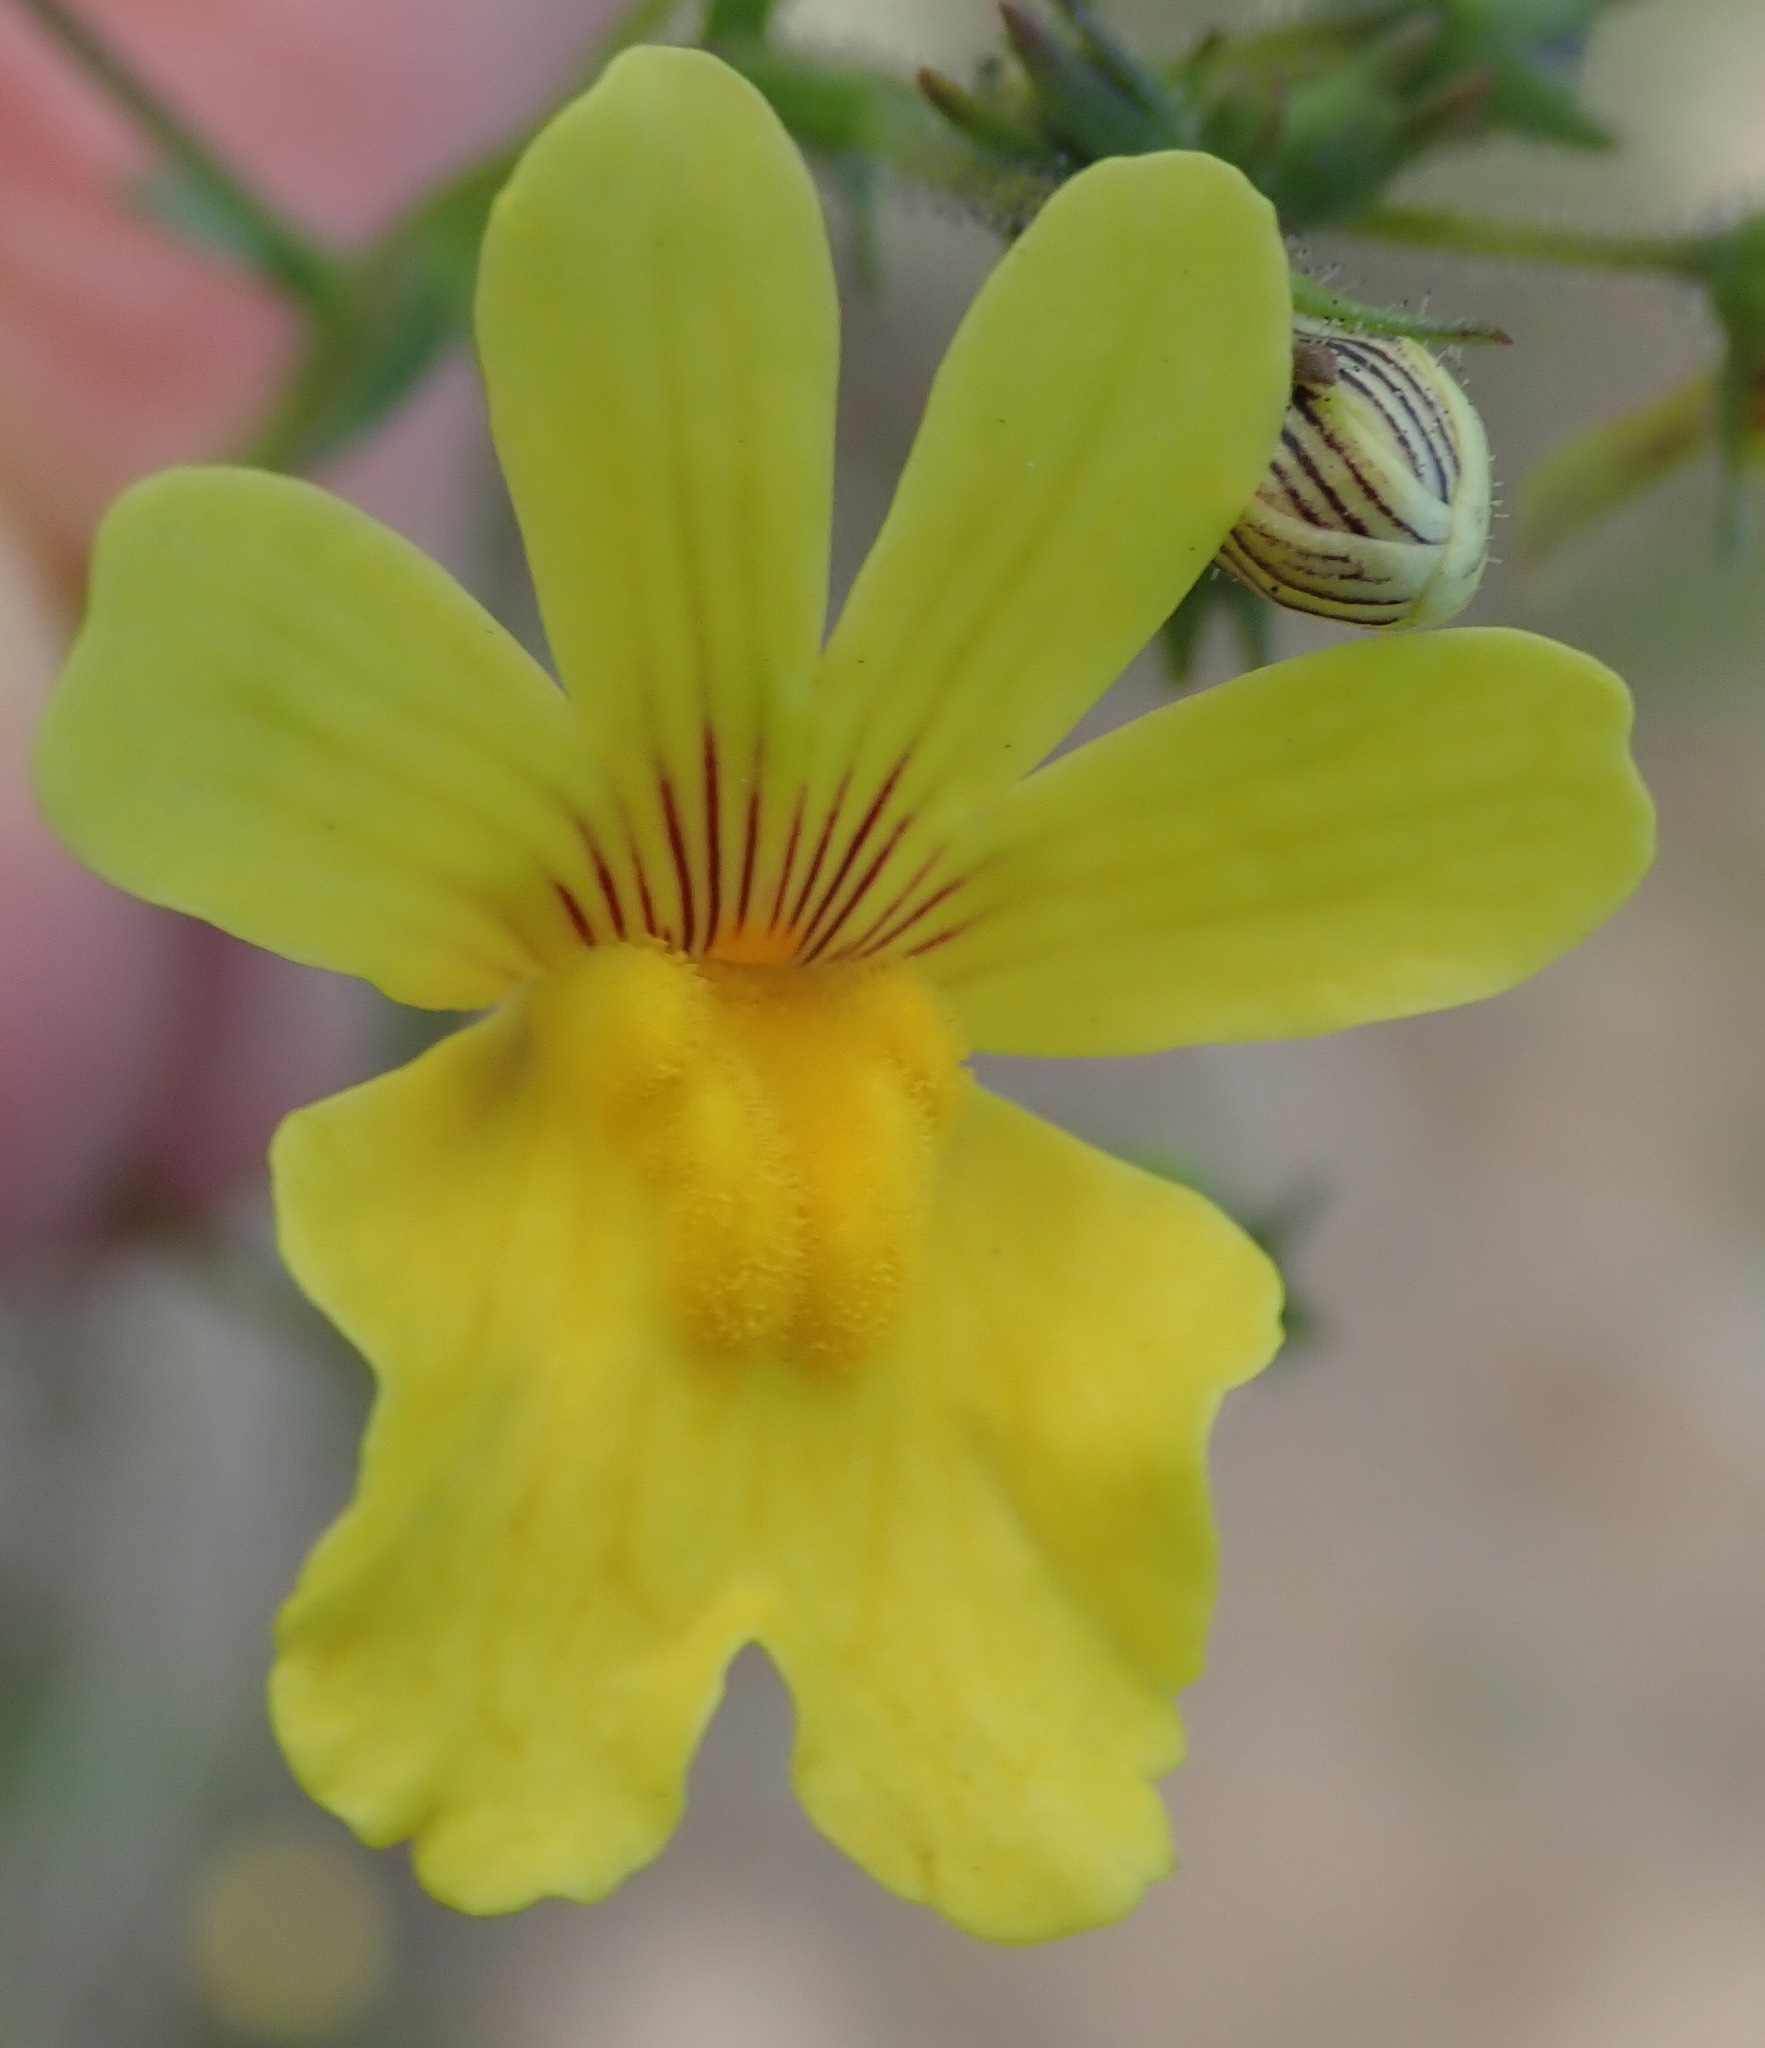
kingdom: Plantae
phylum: Tracheophyta
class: Magnoliopsida
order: Lamiales
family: Scrophulariaceae
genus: Nemesia
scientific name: Nemesia affinis
